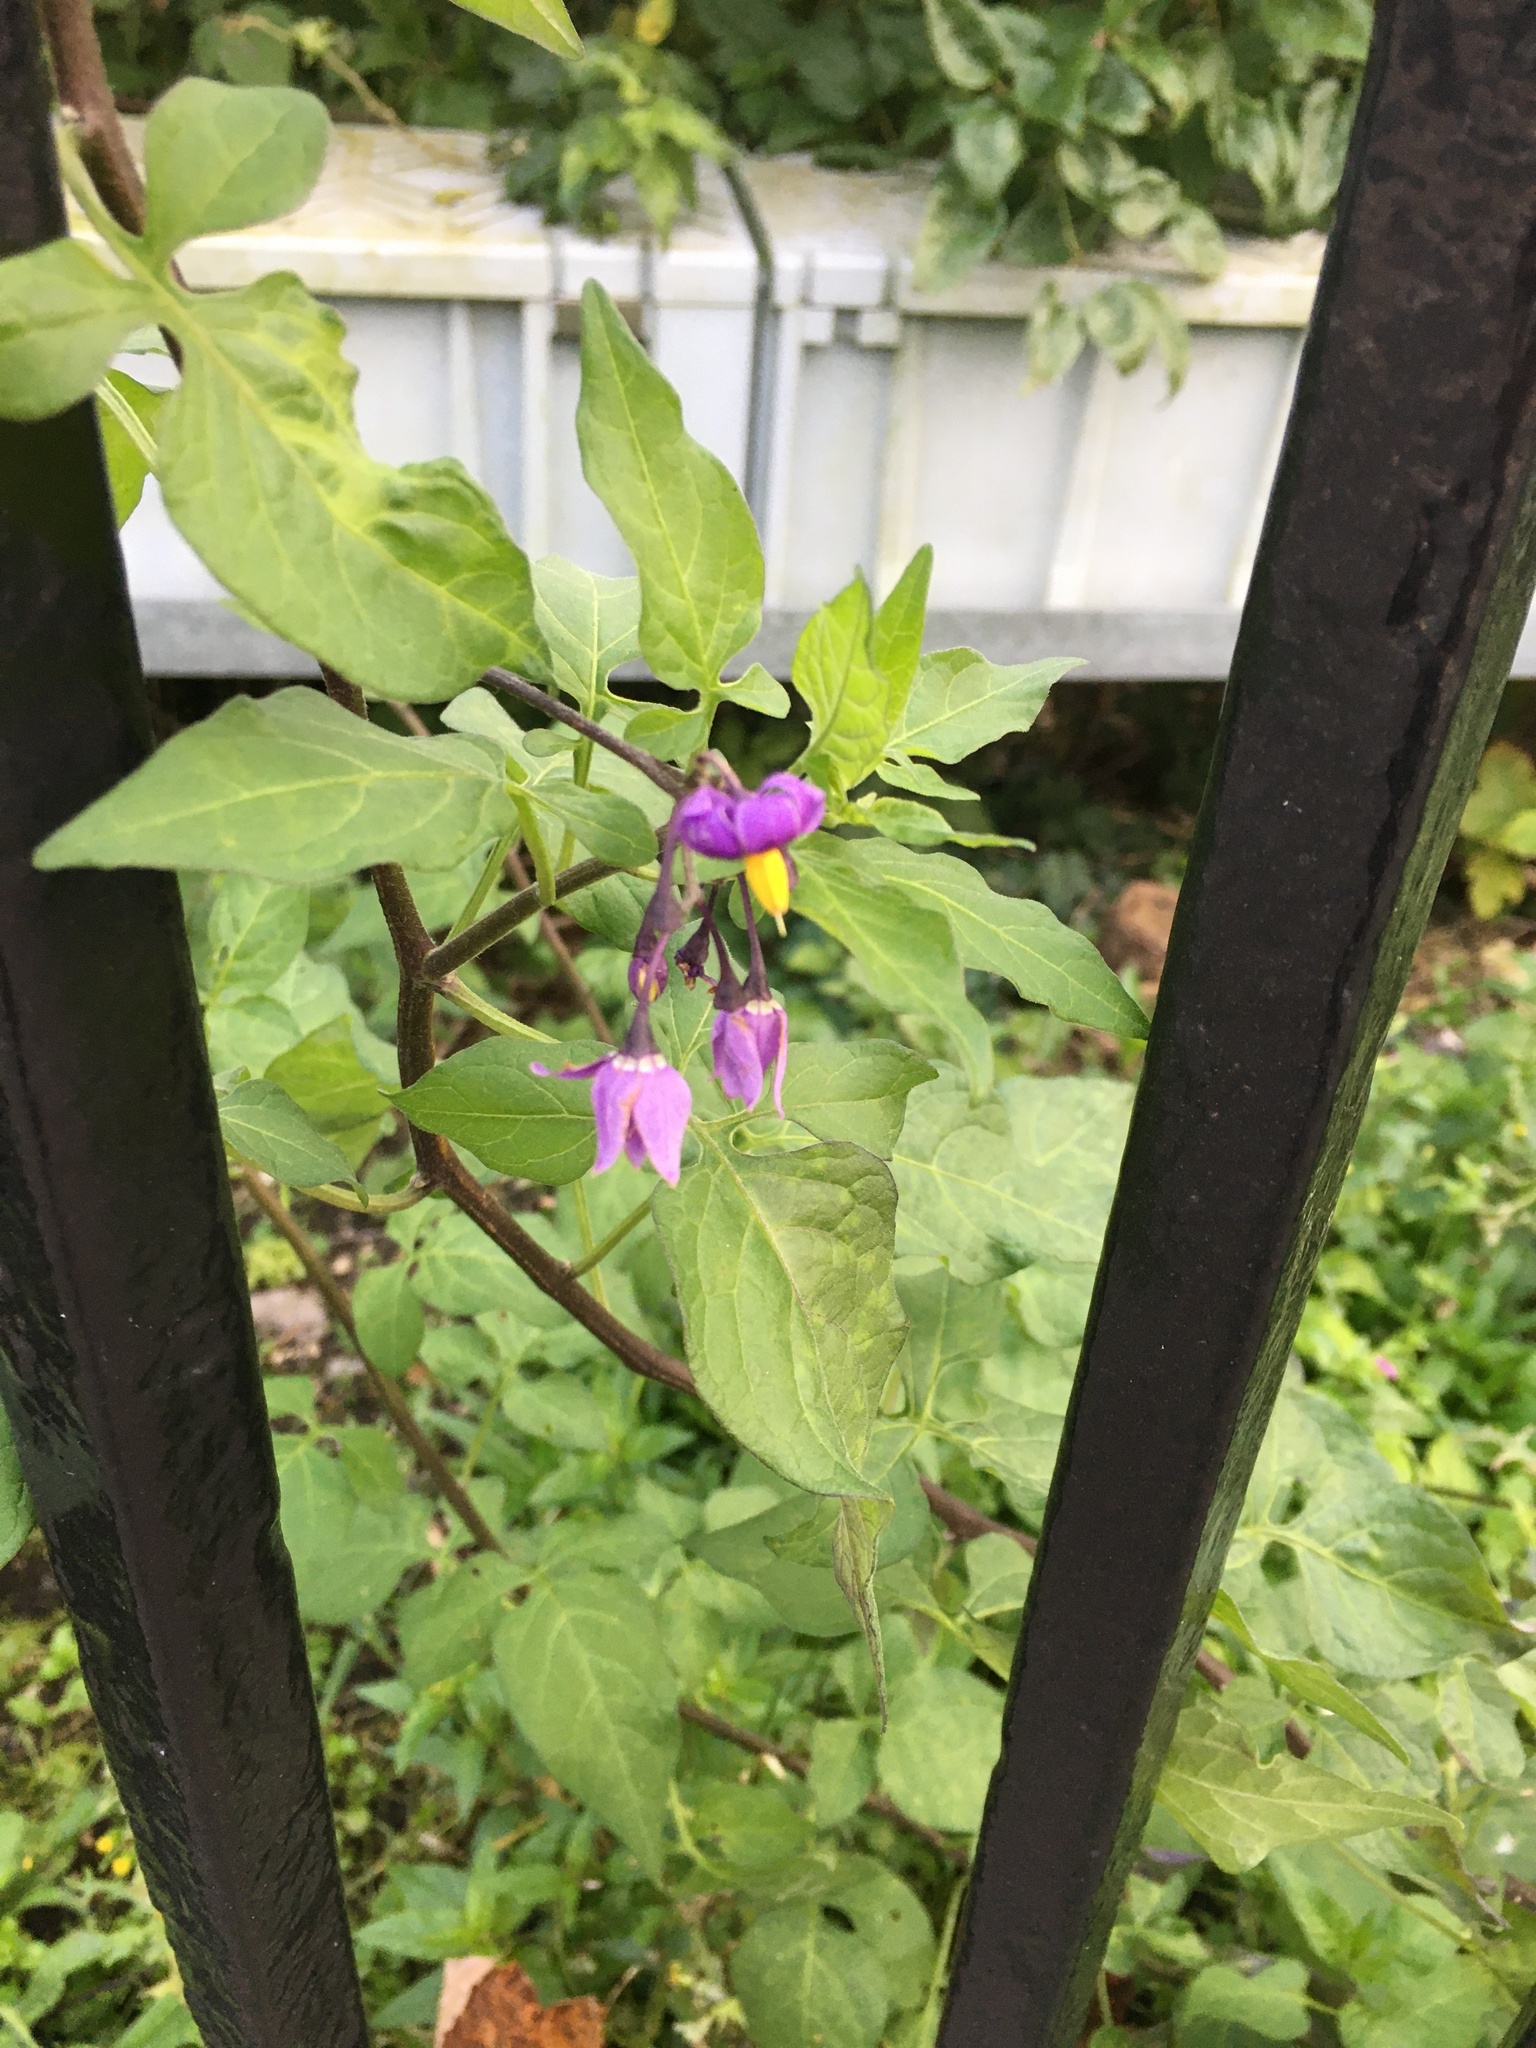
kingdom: Plantae
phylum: Tracheophyta
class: Magnoliopsida
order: Solanales
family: Solanaceae
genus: Solanum
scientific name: Solanum dulcamara
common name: Climbing nightshade
